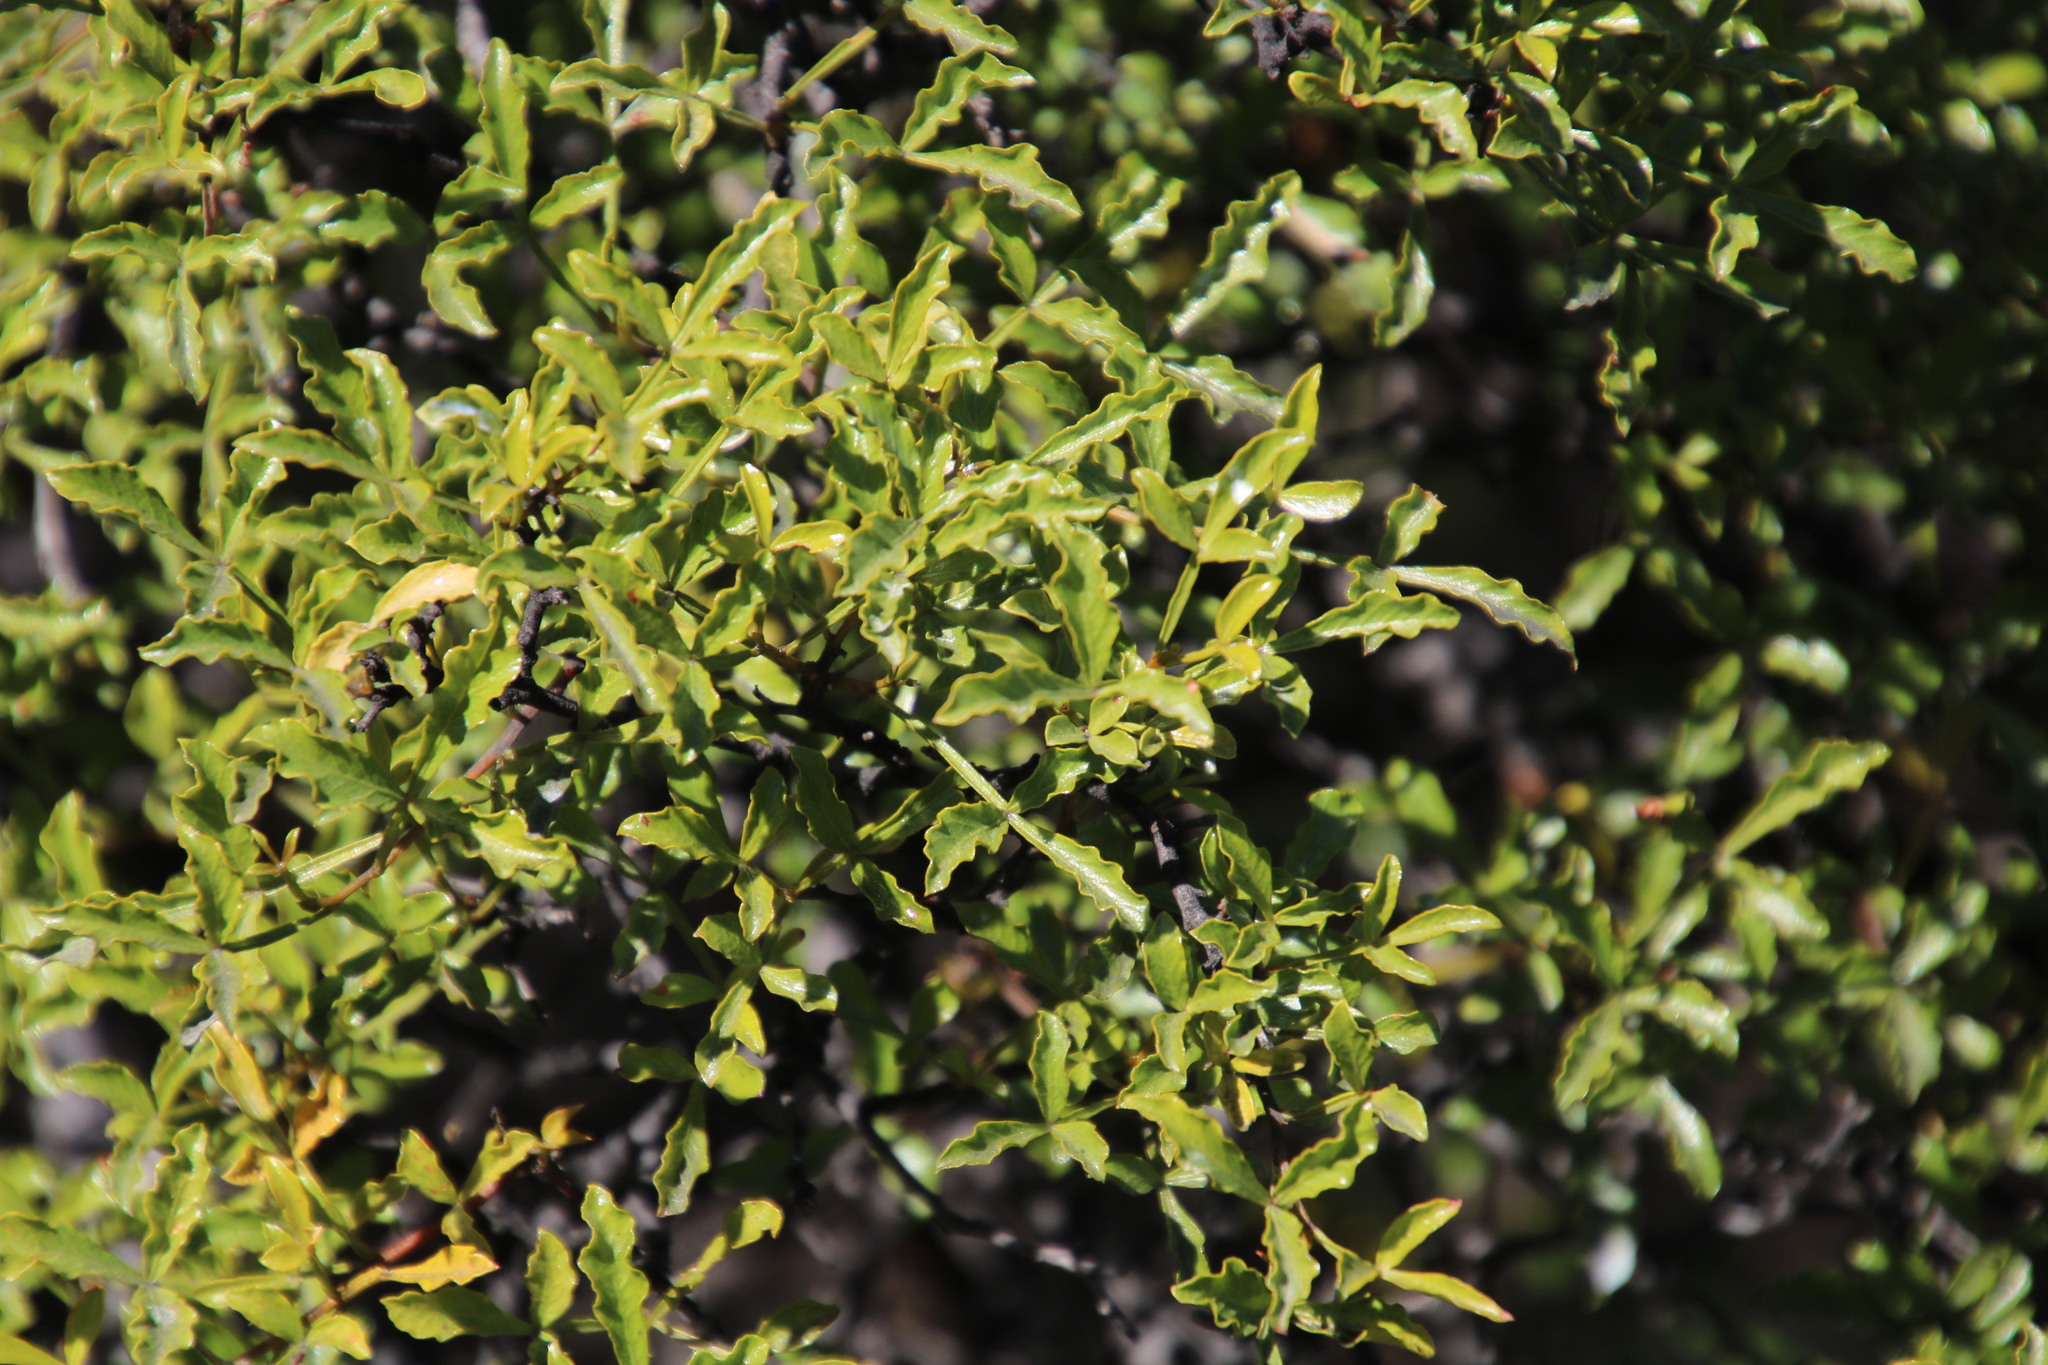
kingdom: Plantae
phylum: Tracheophyta
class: Magnoliopsida
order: Sapindales
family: Anacardiaceae
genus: Searsia
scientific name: Searsia undulata
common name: Namaqua kunibush
